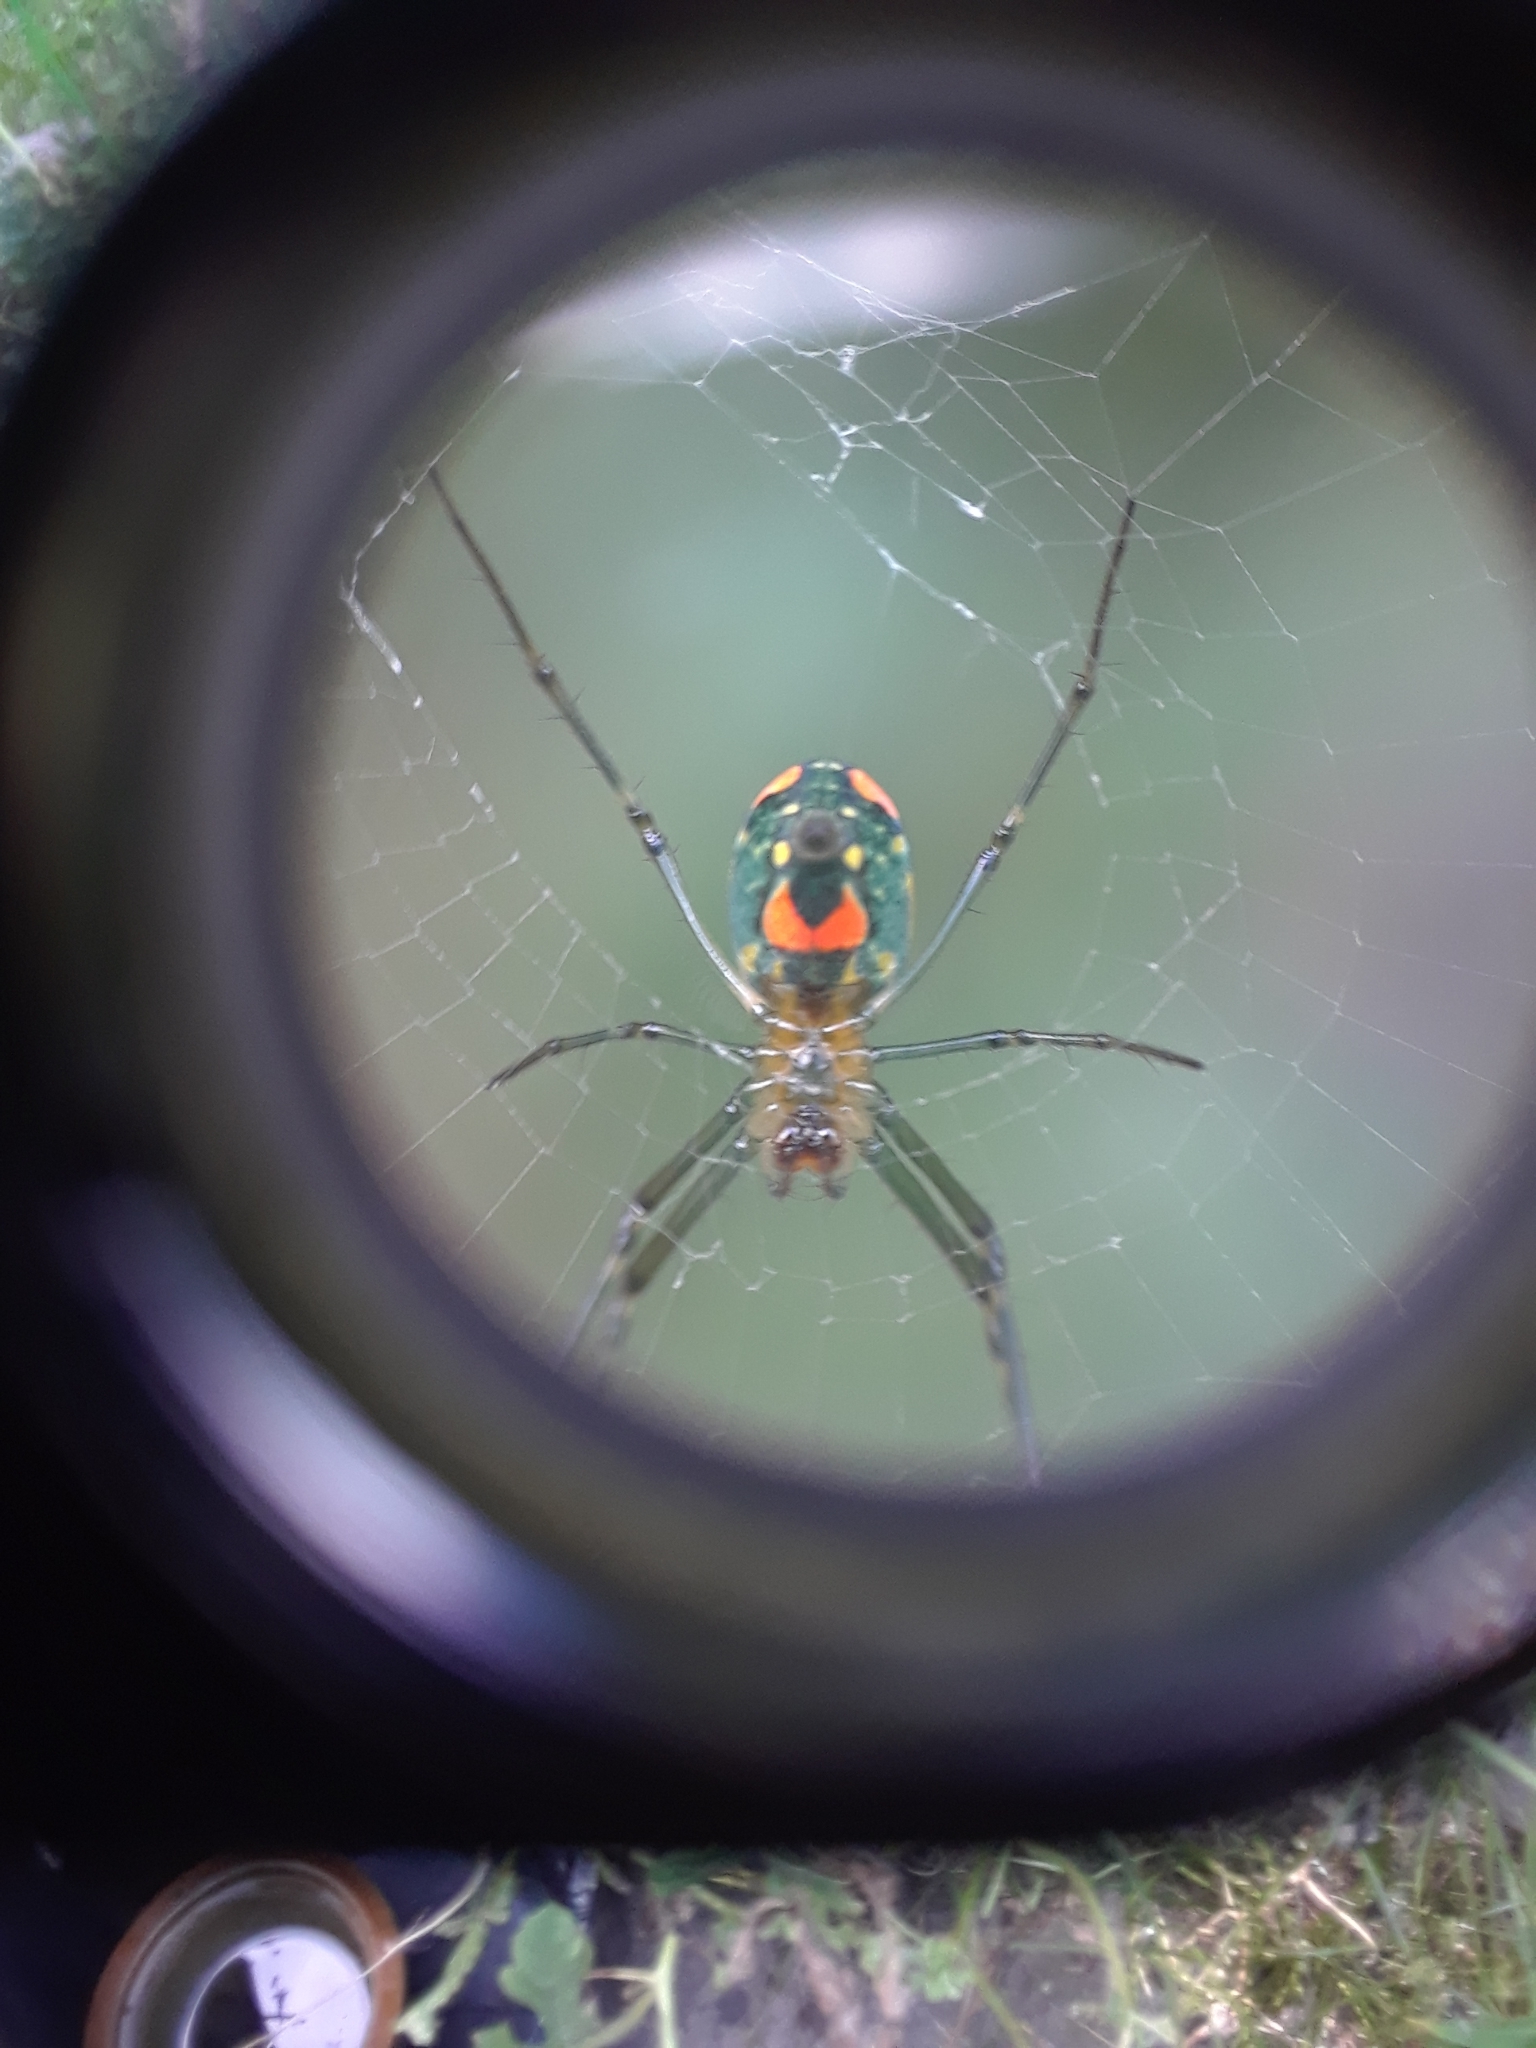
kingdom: Animalia
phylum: Arthropoda
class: Arachnida
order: Araneae
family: Tetragnathidae
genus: Leucauge
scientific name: Leucauge argyrobapta
